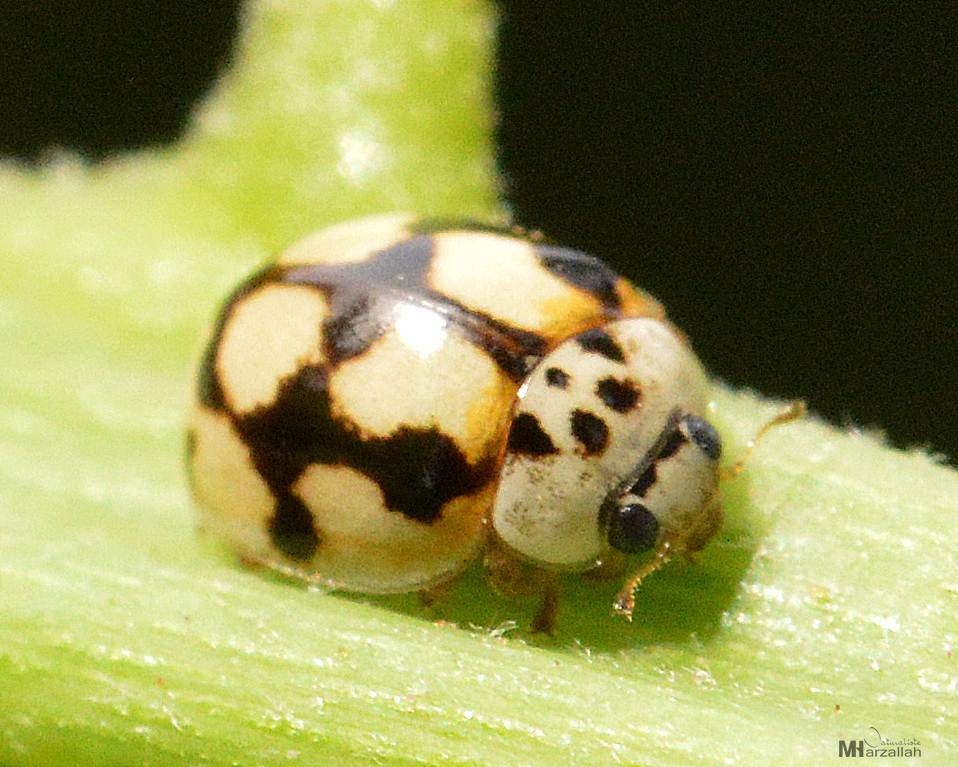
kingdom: Animalia
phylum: Arthropoda
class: Insecta
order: Coleoptera
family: Coccinellidae
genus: Adalia
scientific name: Adalia decempunctata
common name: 10-spot ladybird
